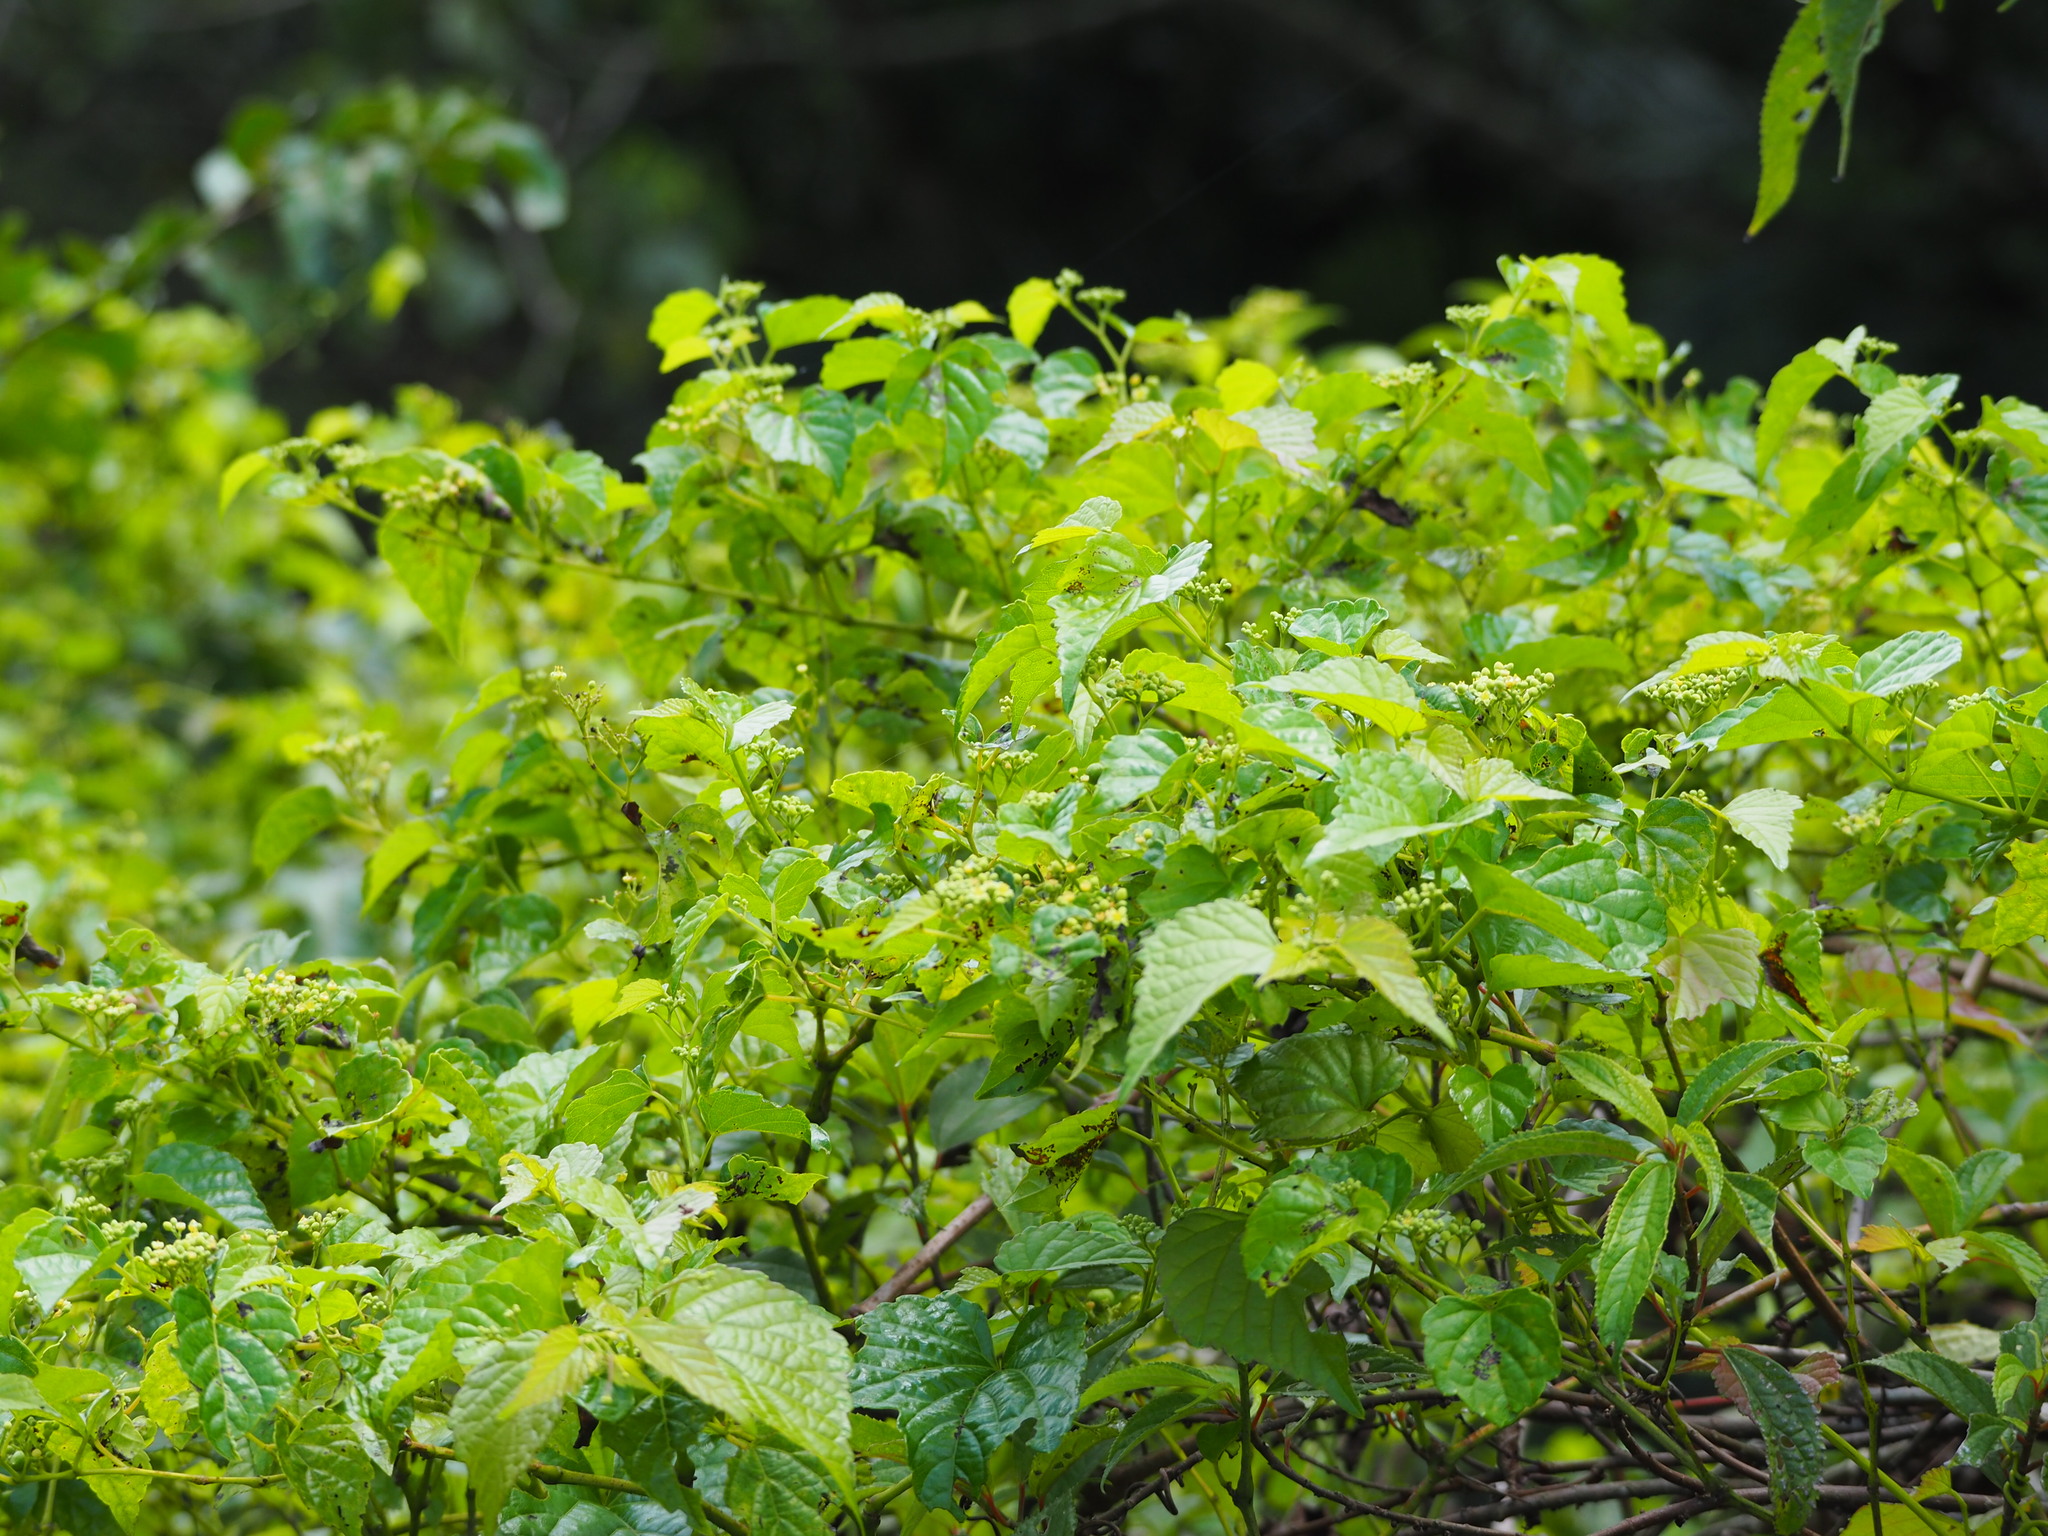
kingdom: Plantae
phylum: Tracheophyta
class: Magnoliopsida
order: Vitales
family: Vitaceae
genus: Ampelopsis
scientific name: Ampelopsis glandulosa
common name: Amur peppervine
